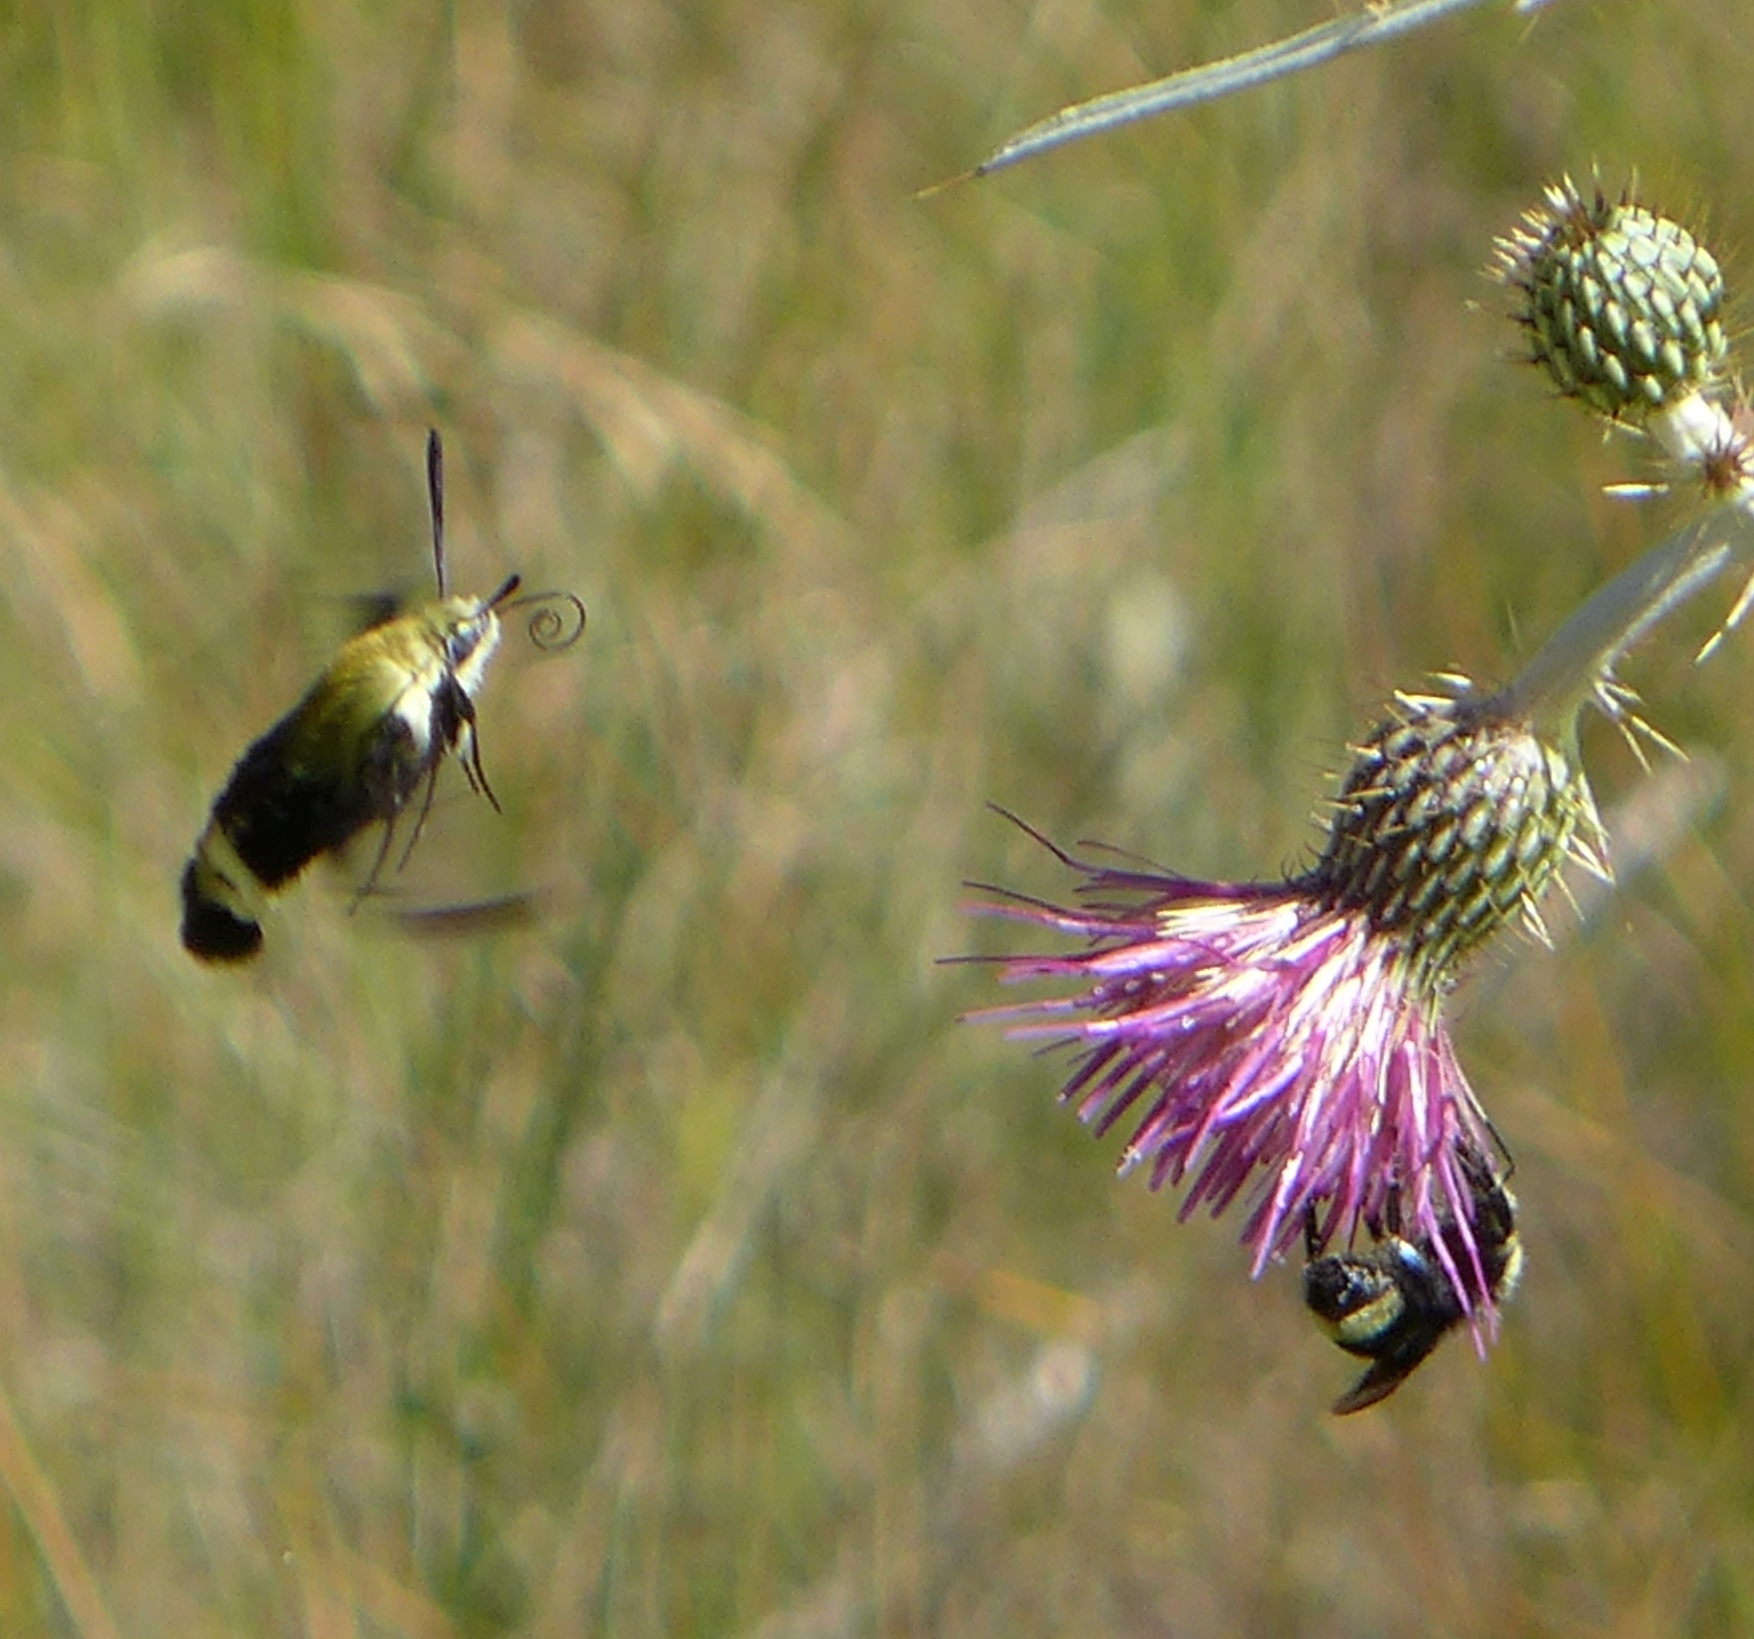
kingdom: Animalia
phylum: Arthropoda
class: Insecta
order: Lepidoptera
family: Sphingidae
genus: Hemaris
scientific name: Hemaris thetis
